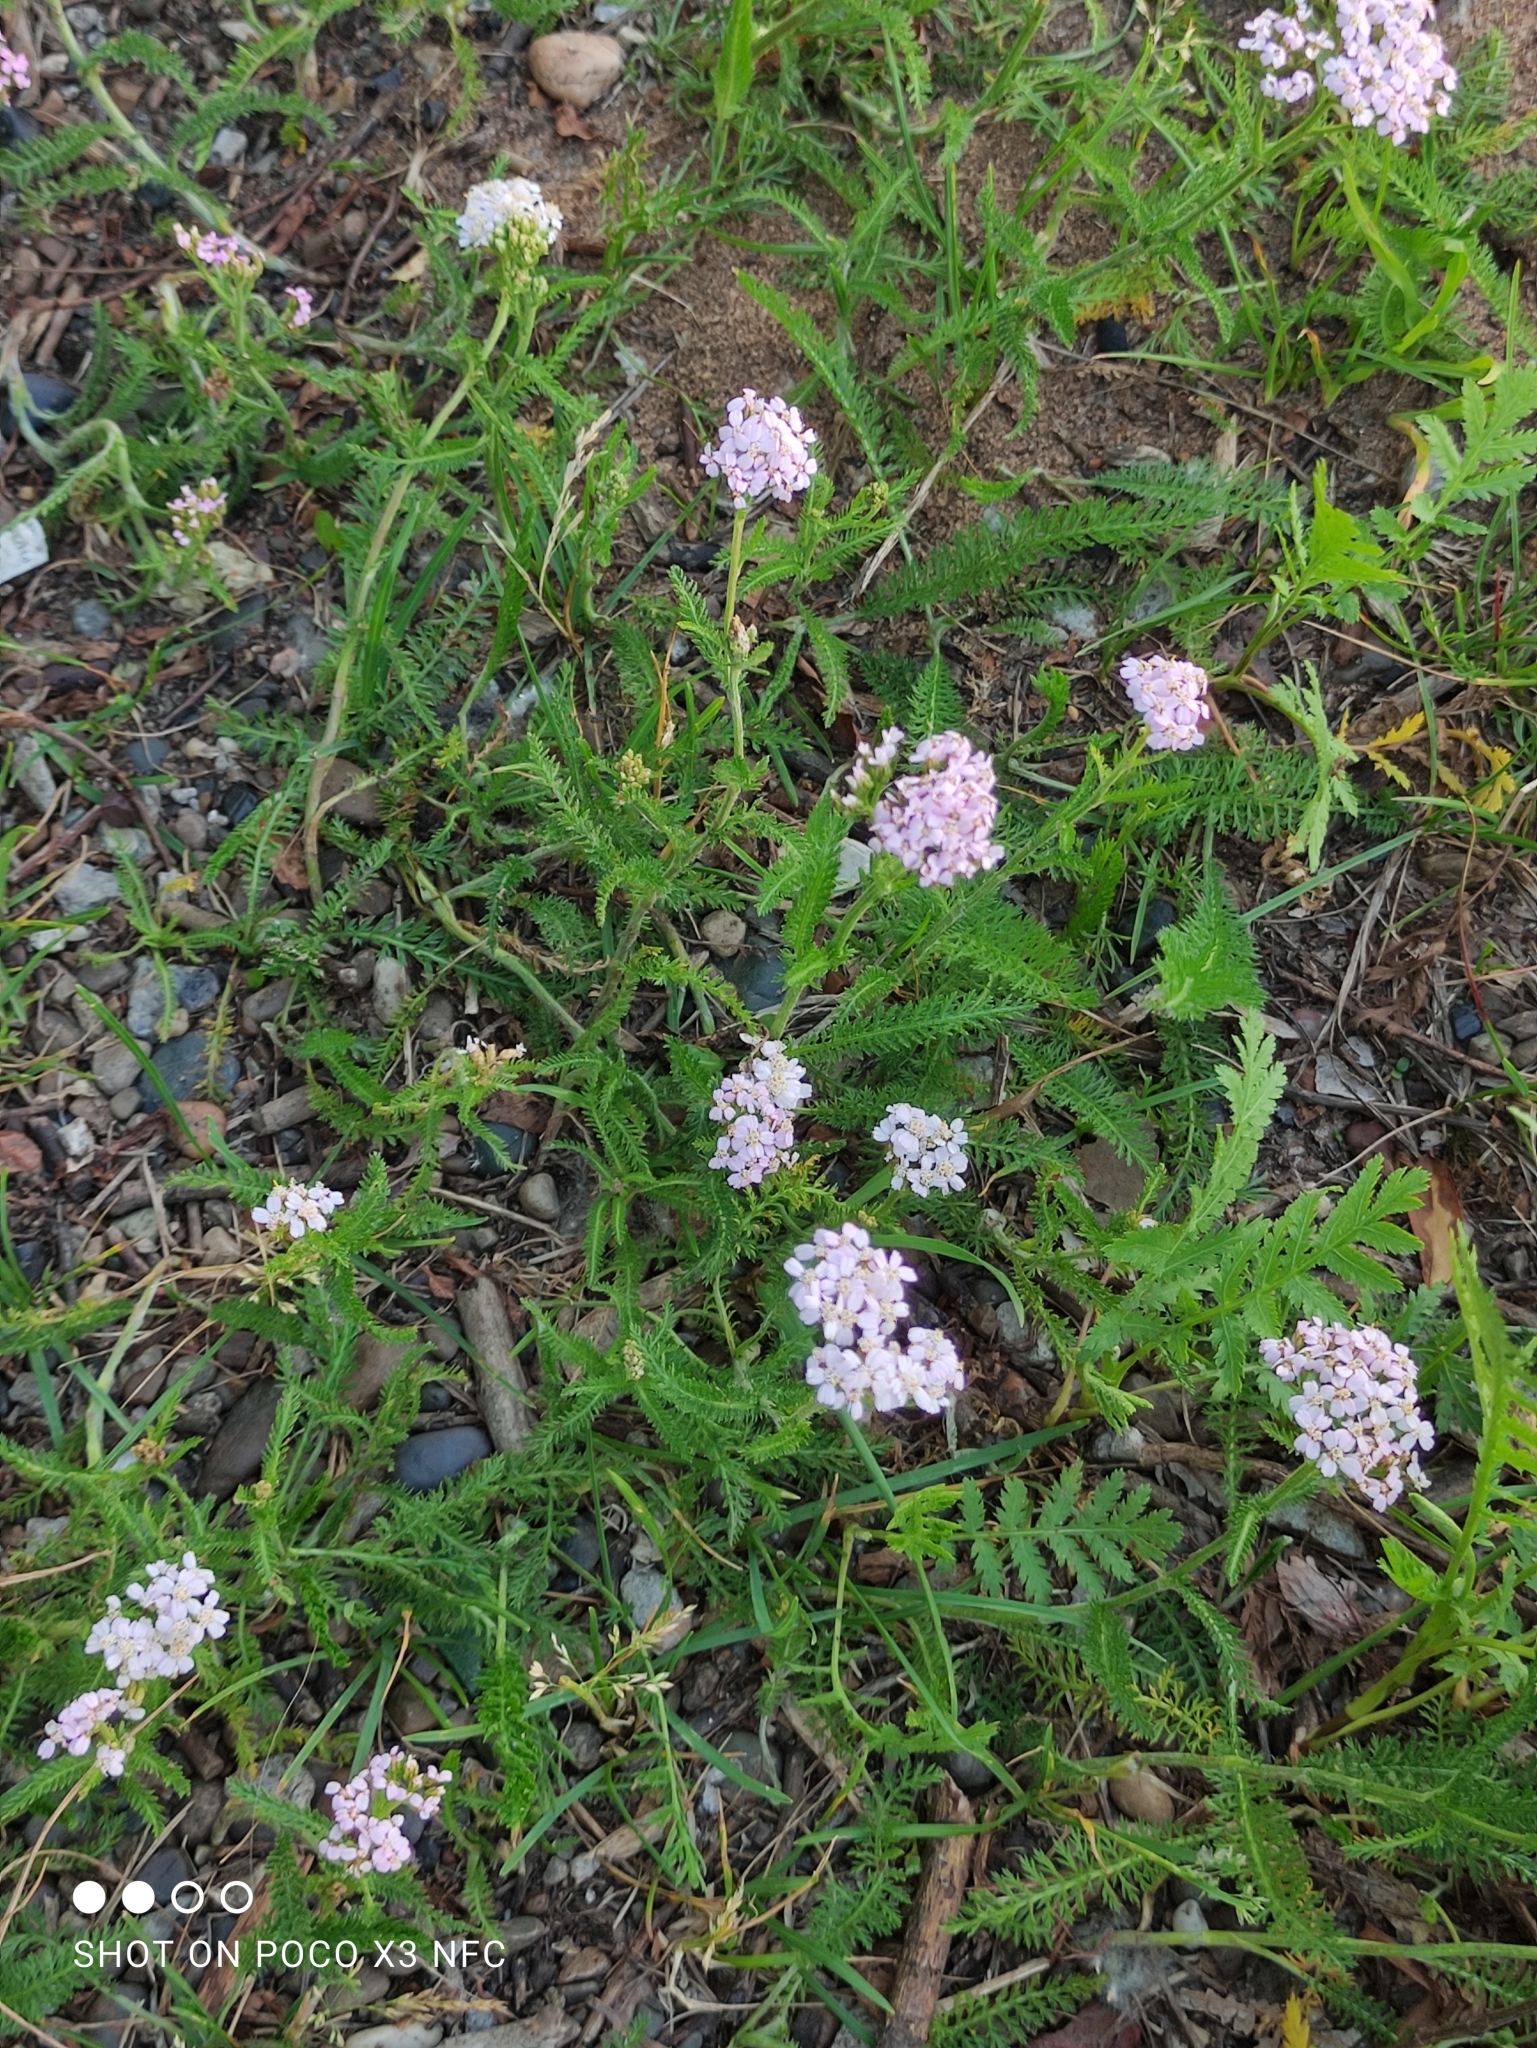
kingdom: Plantae
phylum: Tracheophyta
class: Magnoliopsida
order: Asterales
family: Asteraceae
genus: Achillea
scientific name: Achillea millefolium
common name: Yarrow
